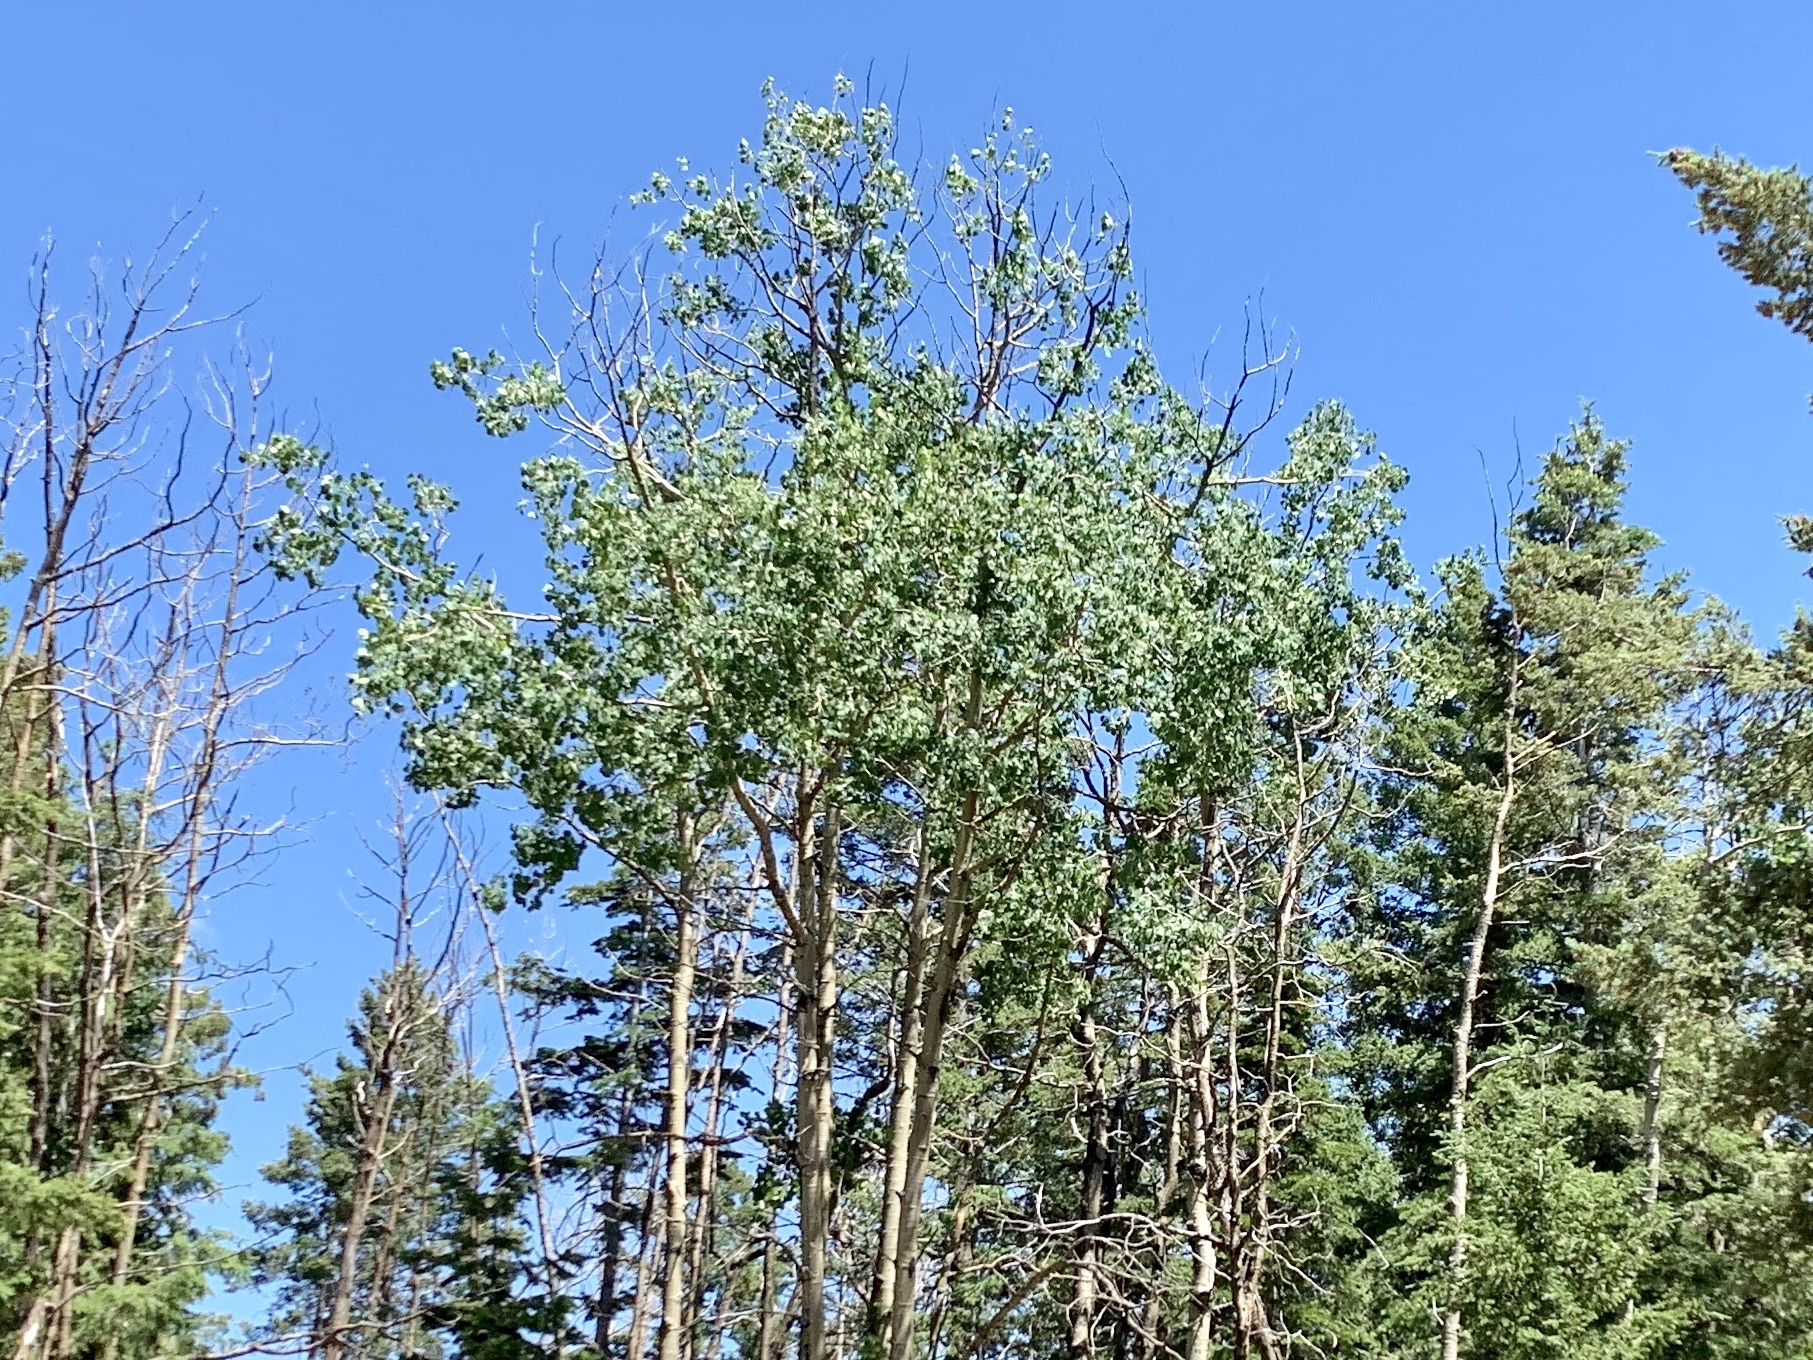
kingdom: Plantae
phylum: Tracheophyta
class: Magnoliopsida
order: Malpighiales
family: Salicaceae
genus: Populus
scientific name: Populus tremuloides
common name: Quaking aspen
